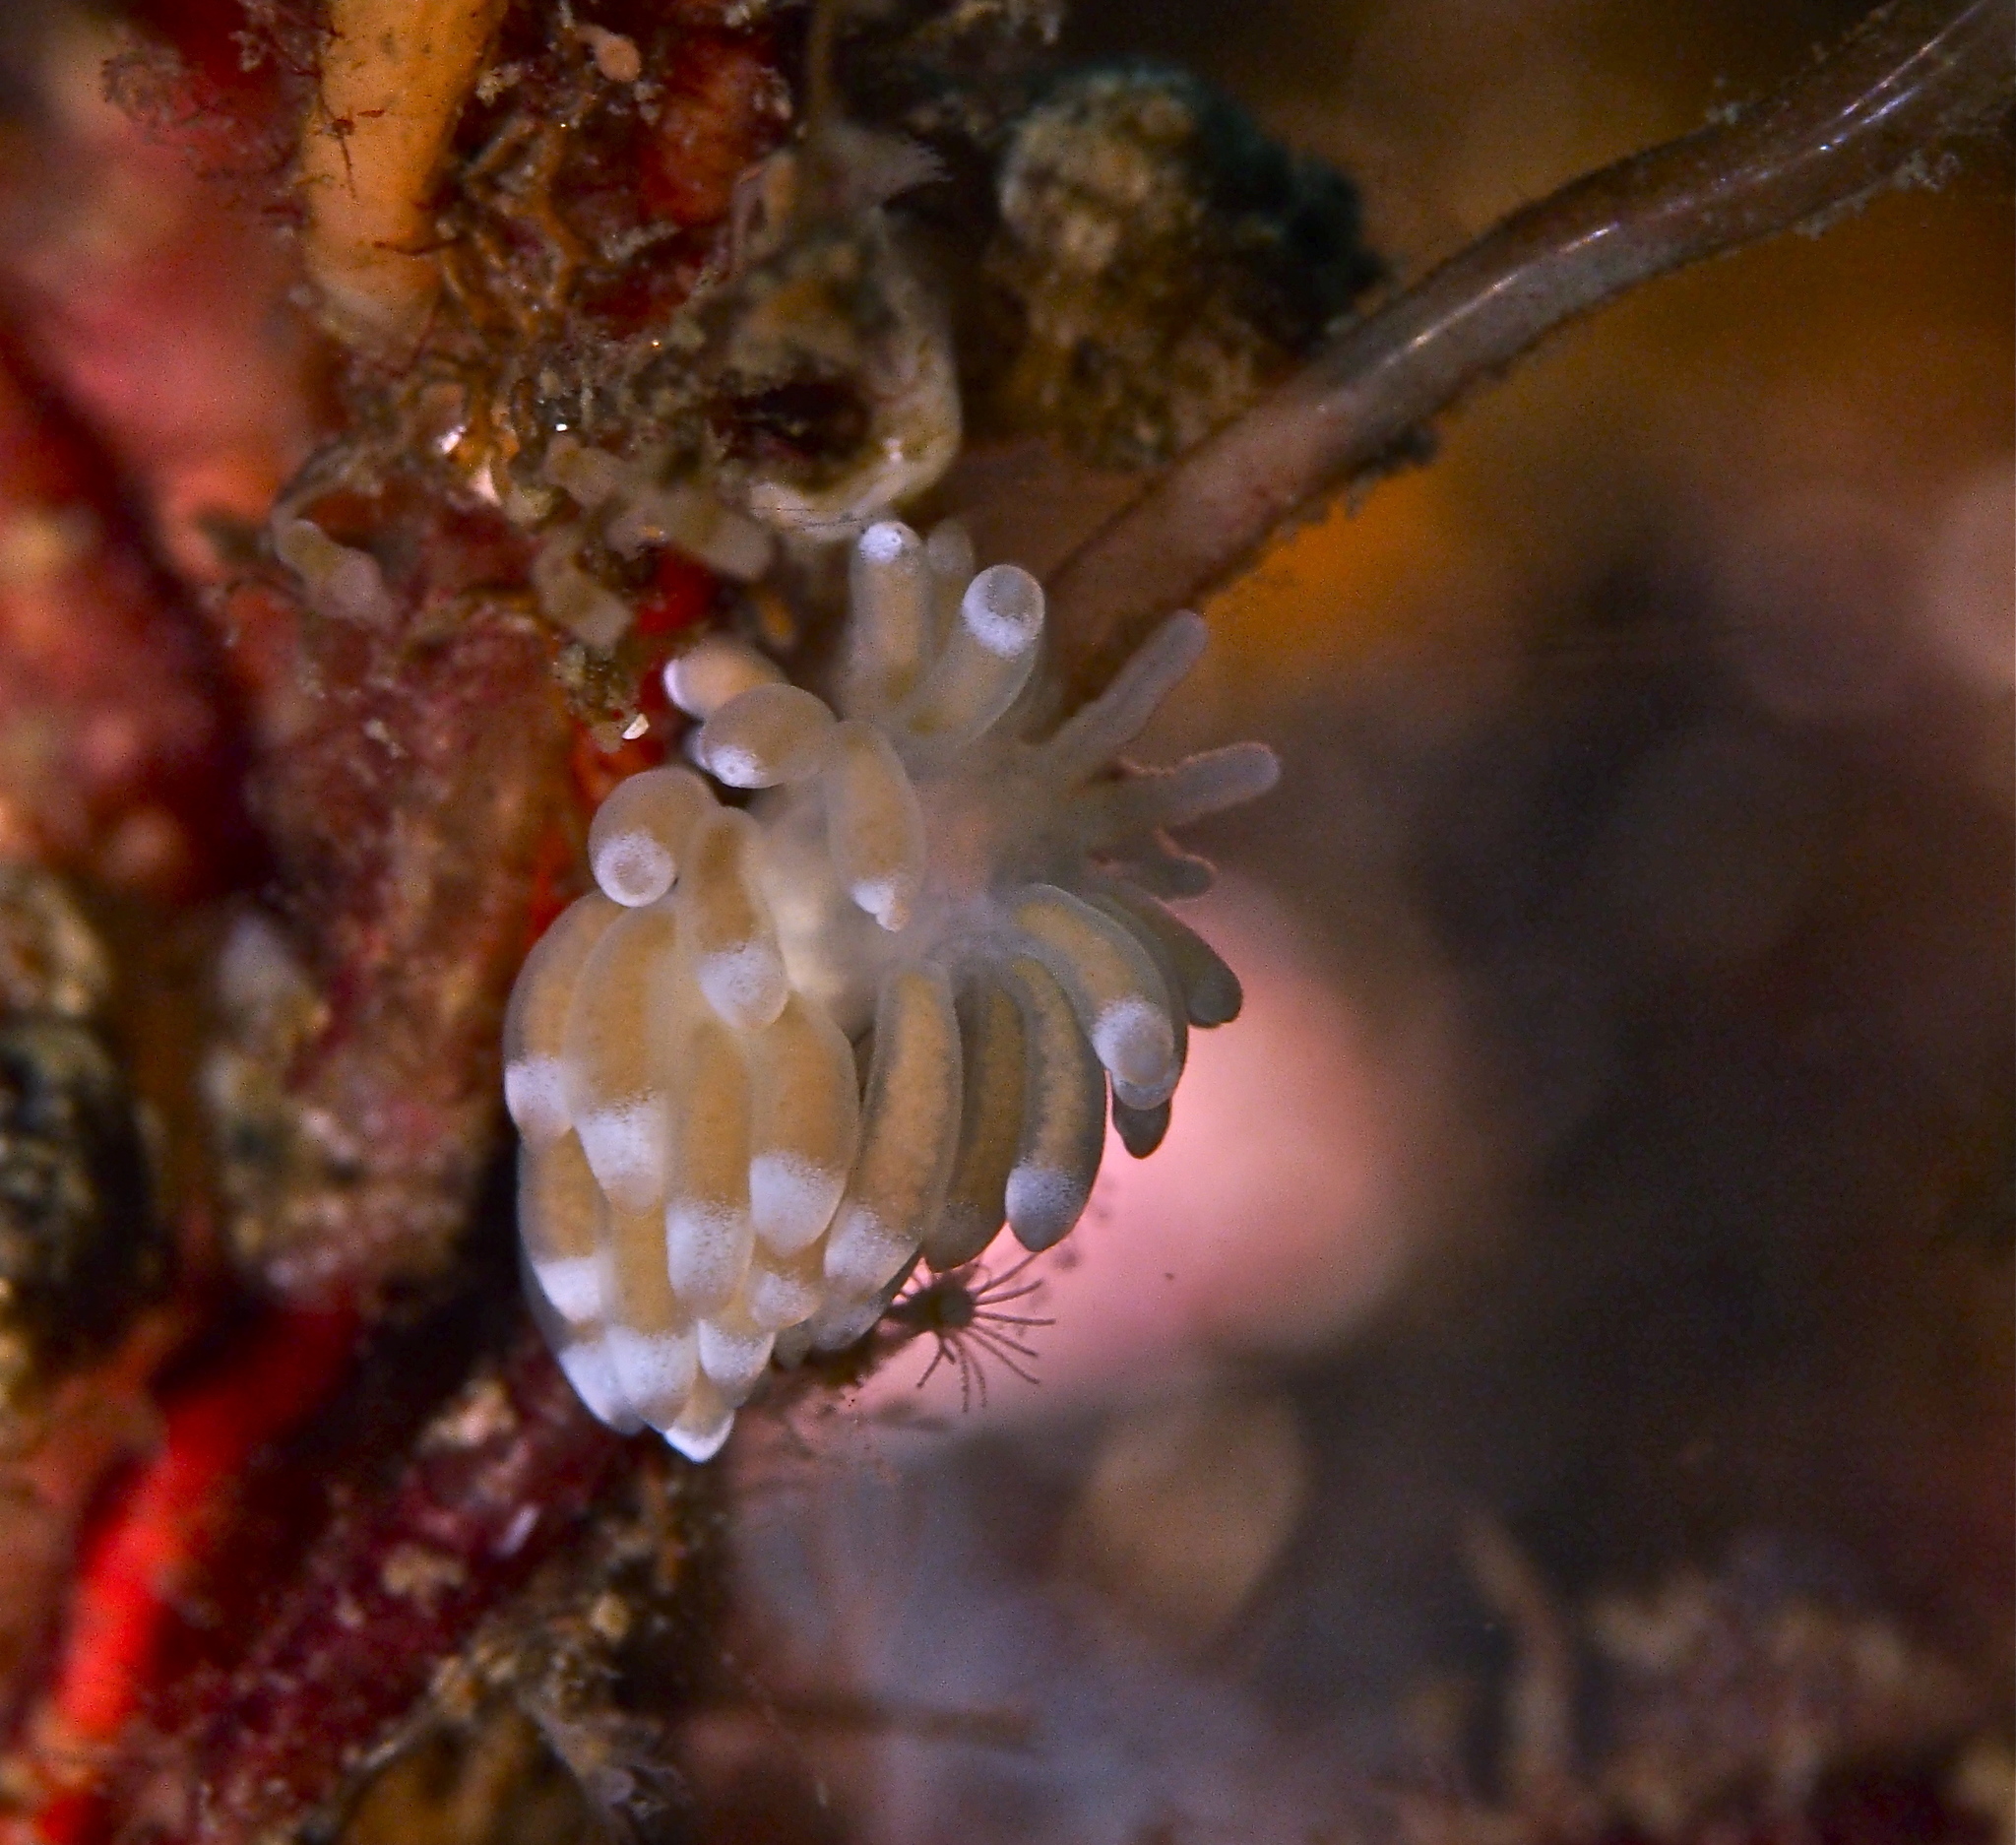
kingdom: Animalia
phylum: Mollusca
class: Gastropoda
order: Nudibranchia
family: Trinchesiidae
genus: Catriona
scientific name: Catriona aurantia
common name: Corange-tip cuthona
